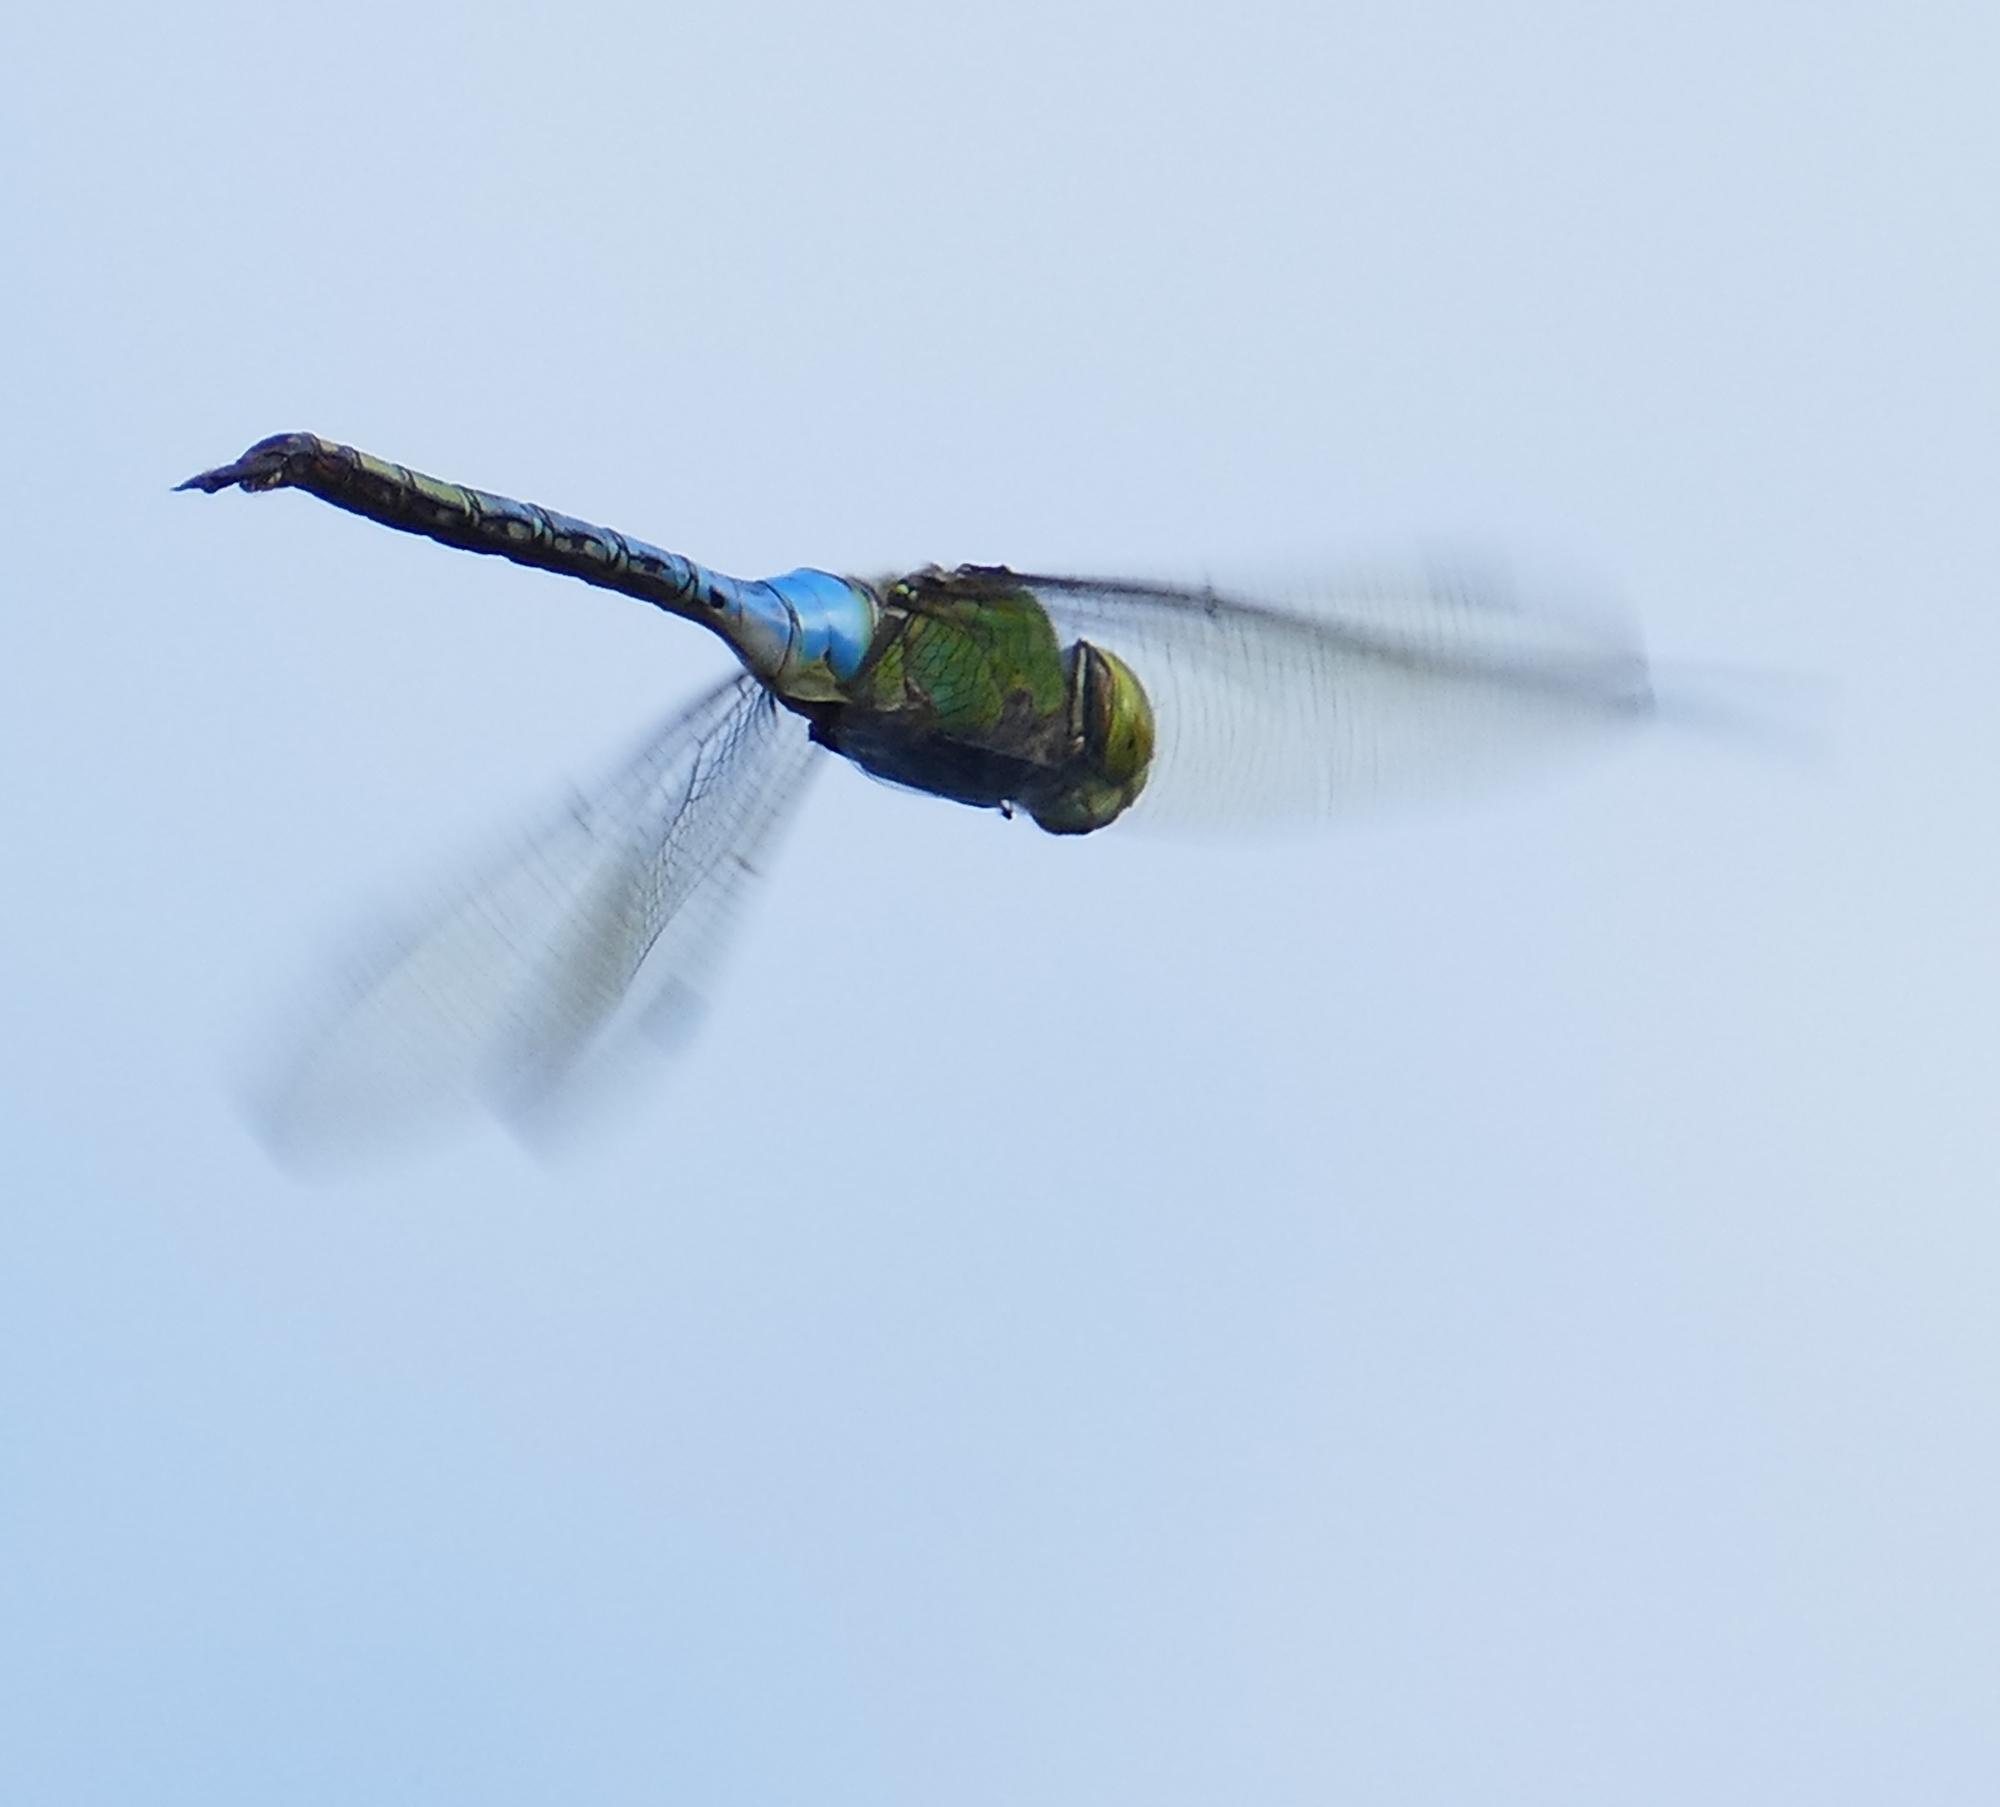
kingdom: Animalia
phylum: Arthropoda
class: Insecta
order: Odonata
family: Aeshnidae
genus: Anax
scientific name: Anax junius
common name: Common green darner
